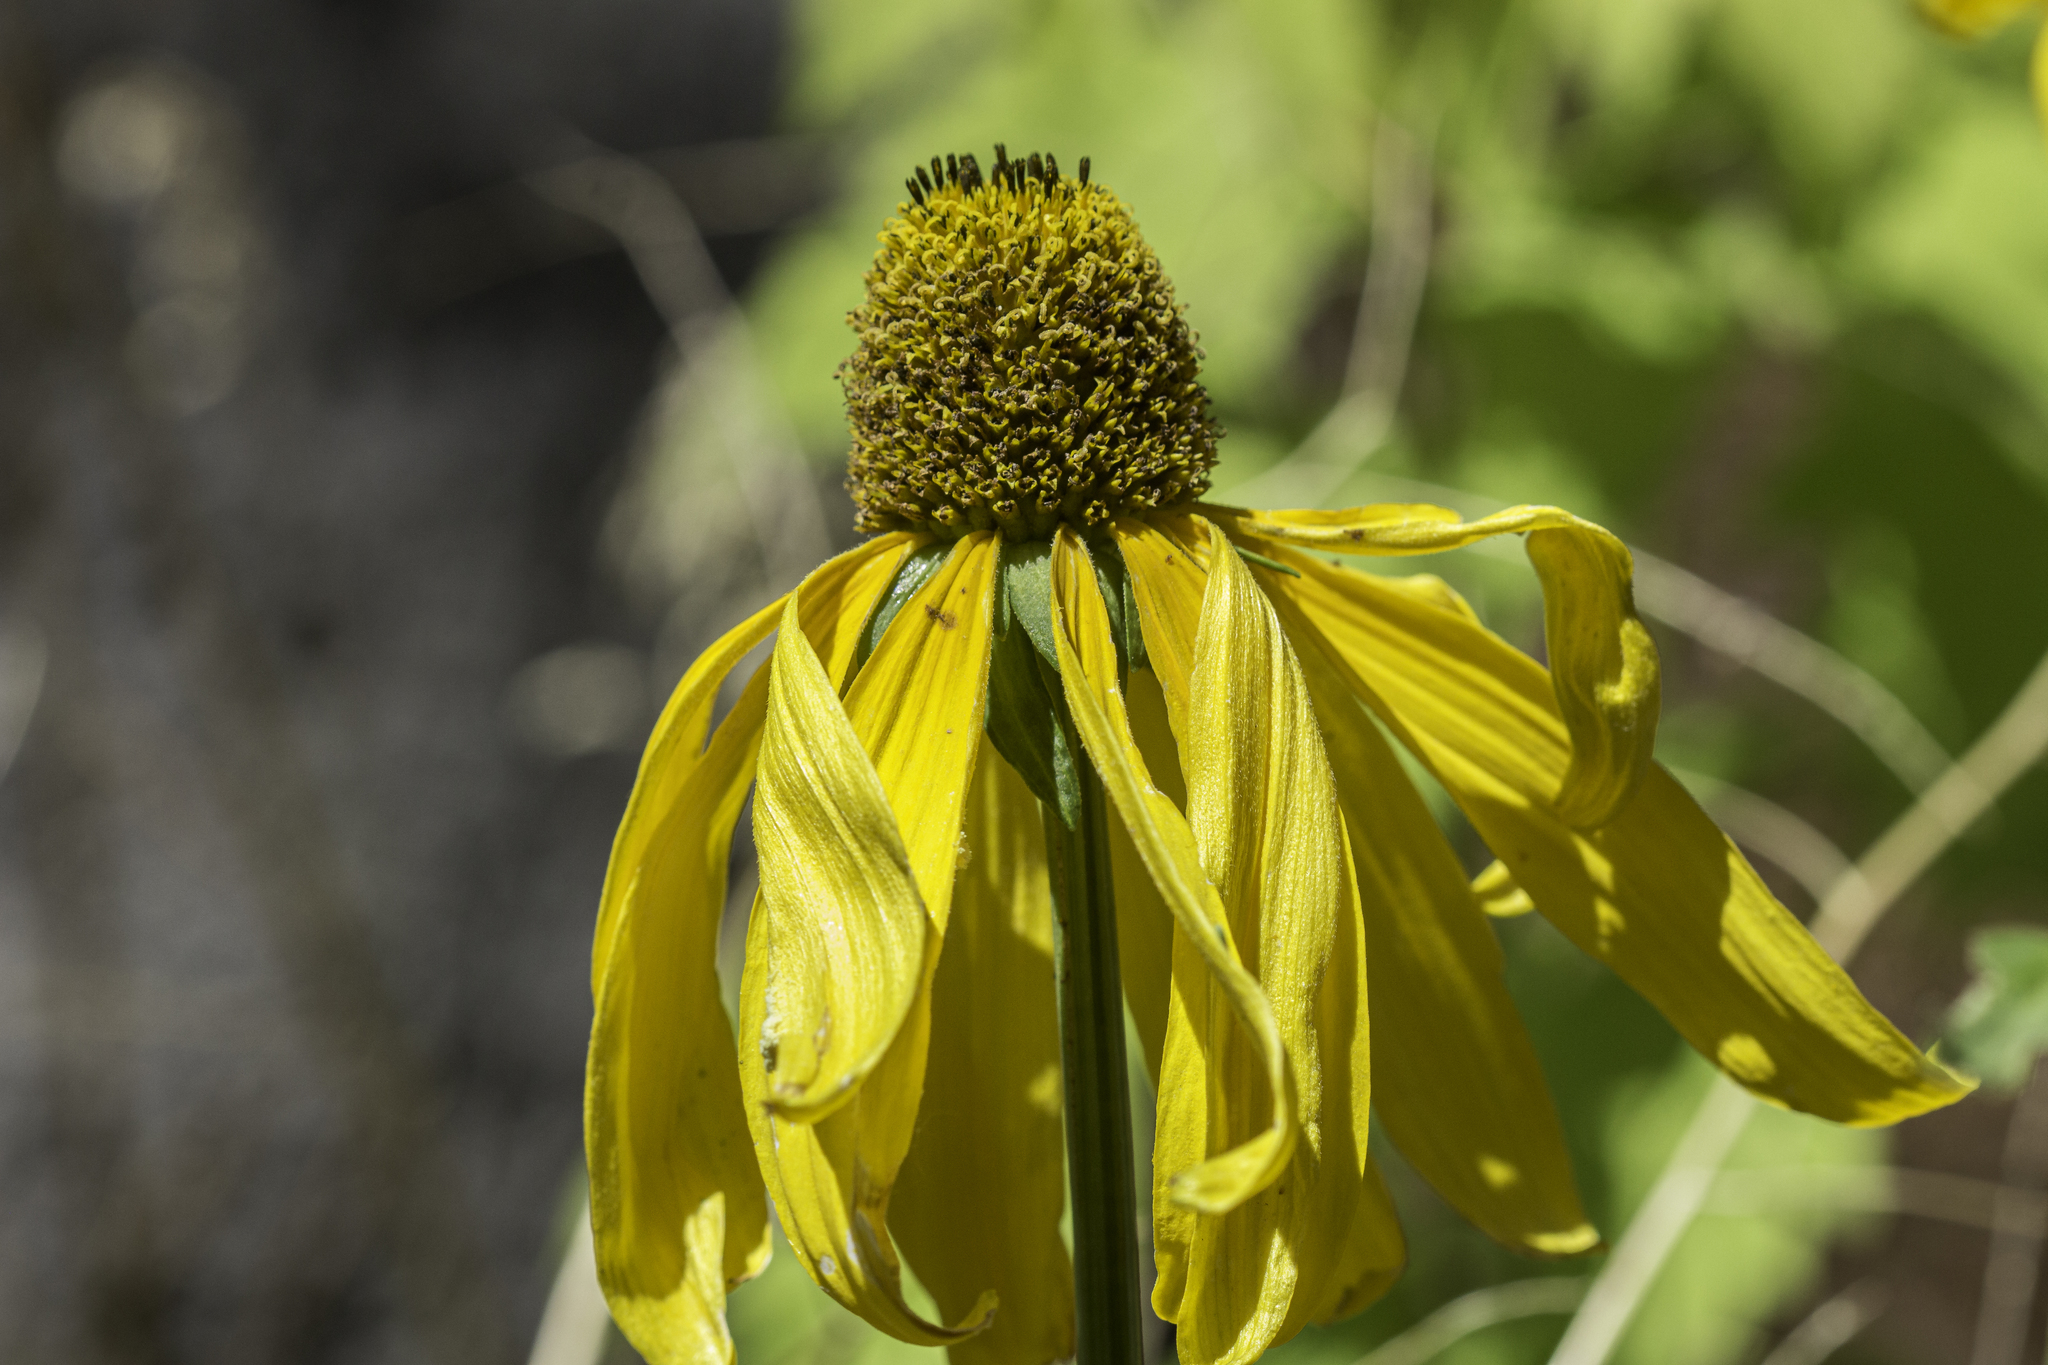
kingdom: Plantae
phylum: Tracheophyta
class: Magnoliopsida
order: Asterales
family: Asteraceae
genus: Rudbeckia
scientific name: Rudbeckia laciniata
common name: Coneflower
